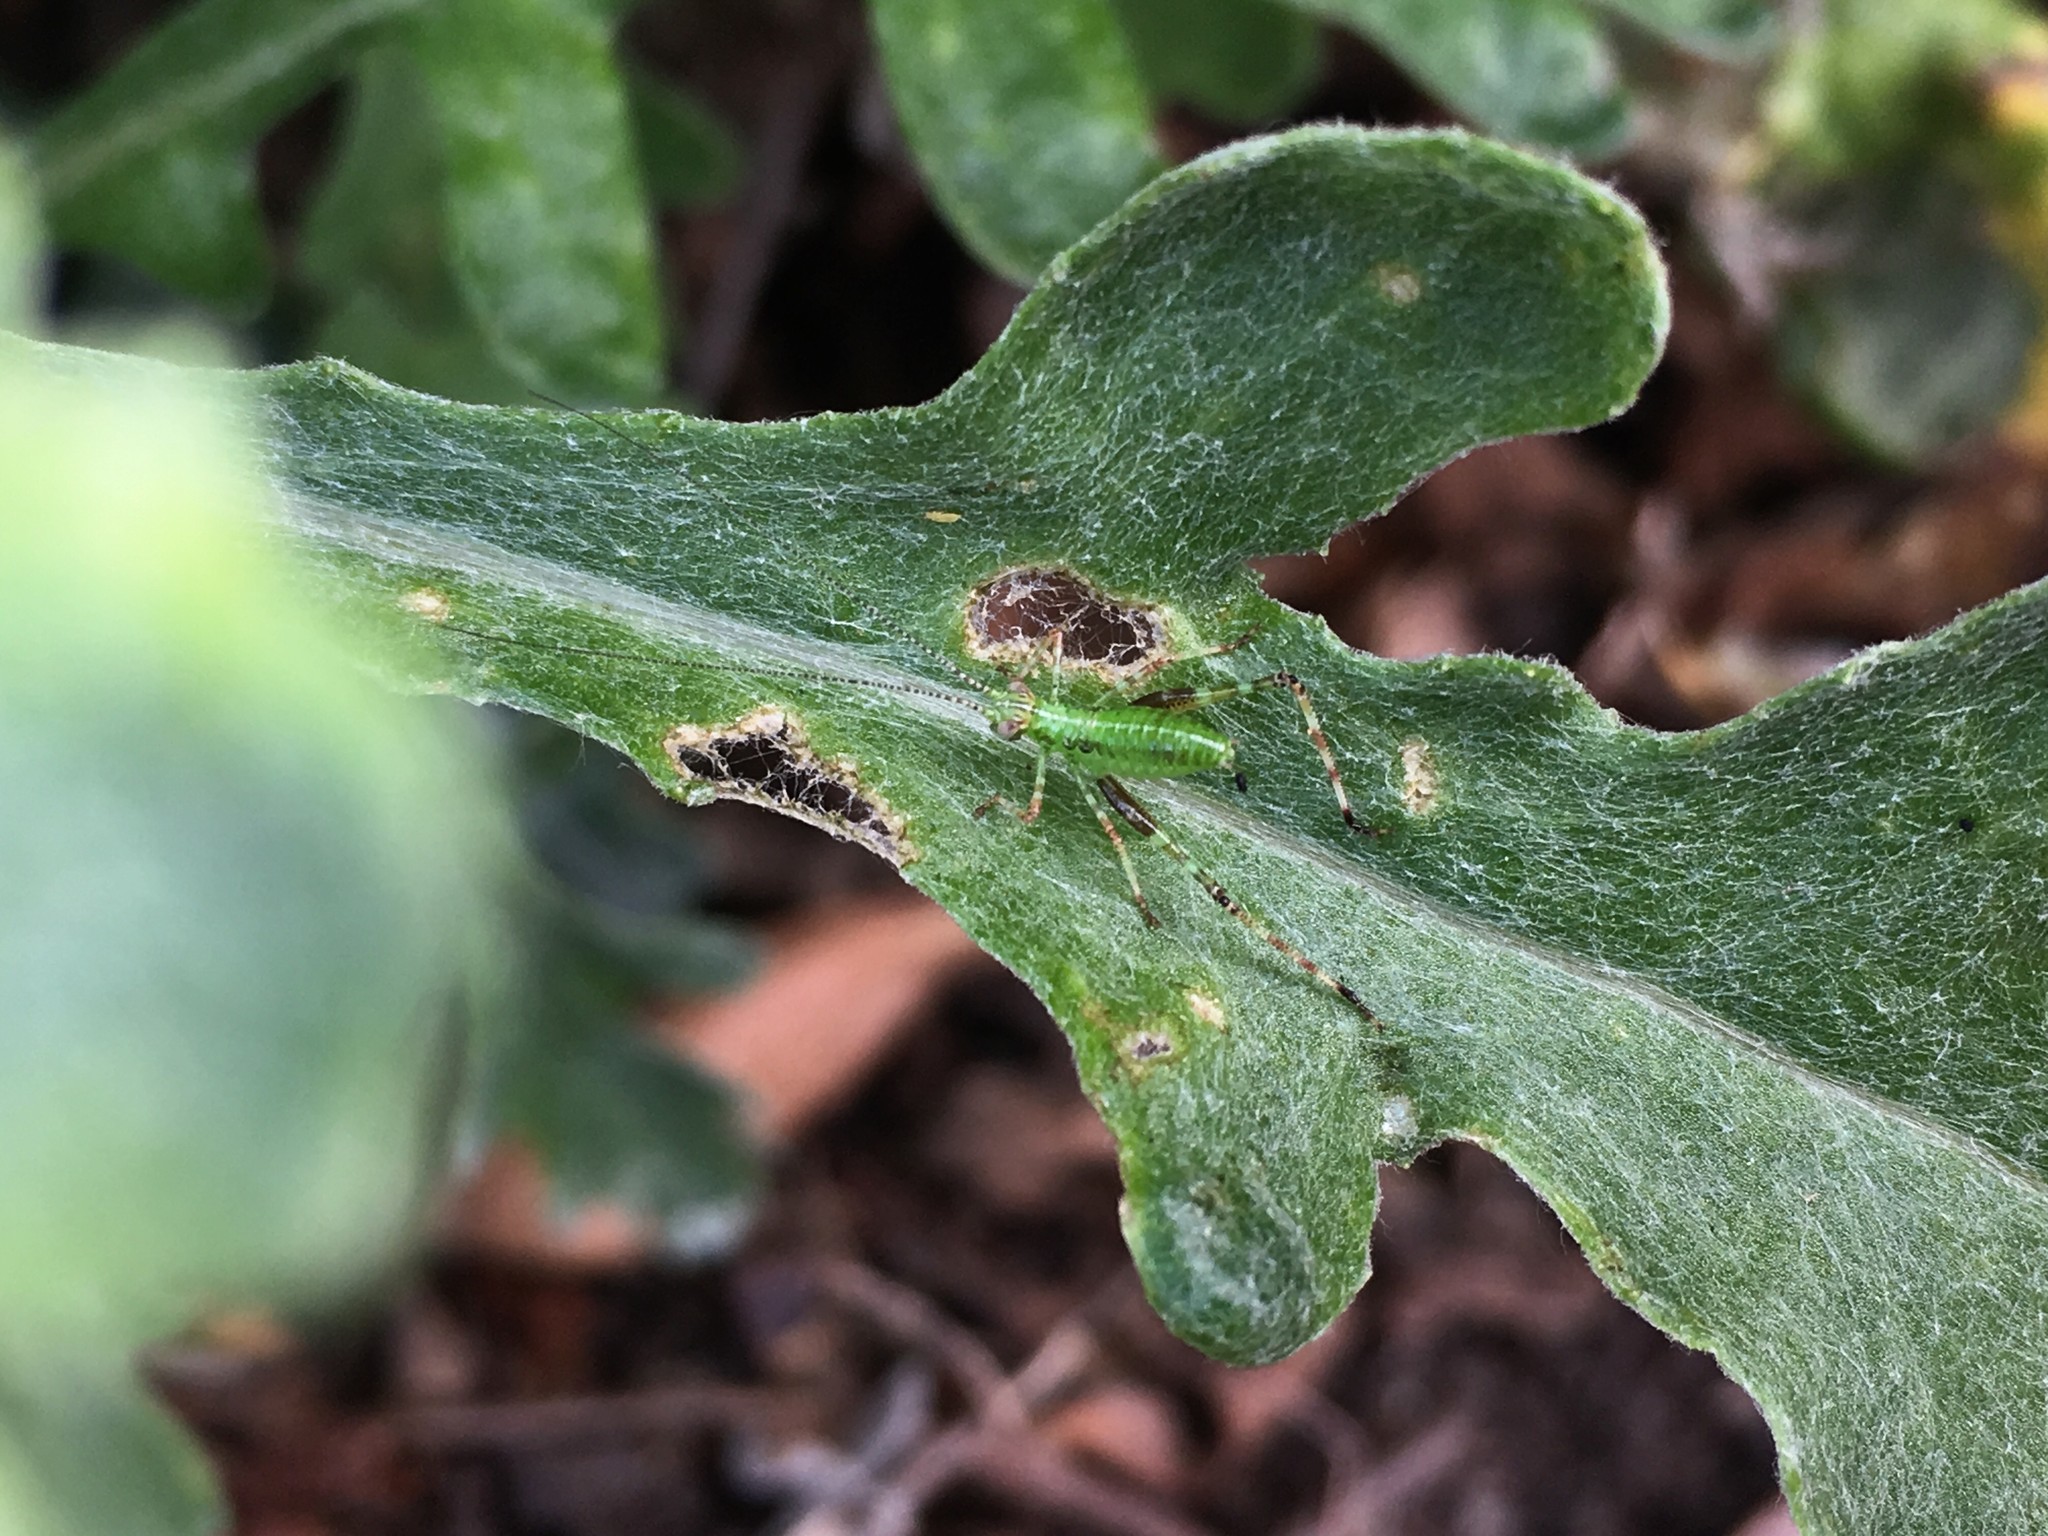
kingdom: Animalia
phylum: Arthropoda
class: Insecta
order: Orthoptera
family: Tettigoniidae
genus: Caedicia
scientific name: Caedicia simplex
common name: Common garden katydid
